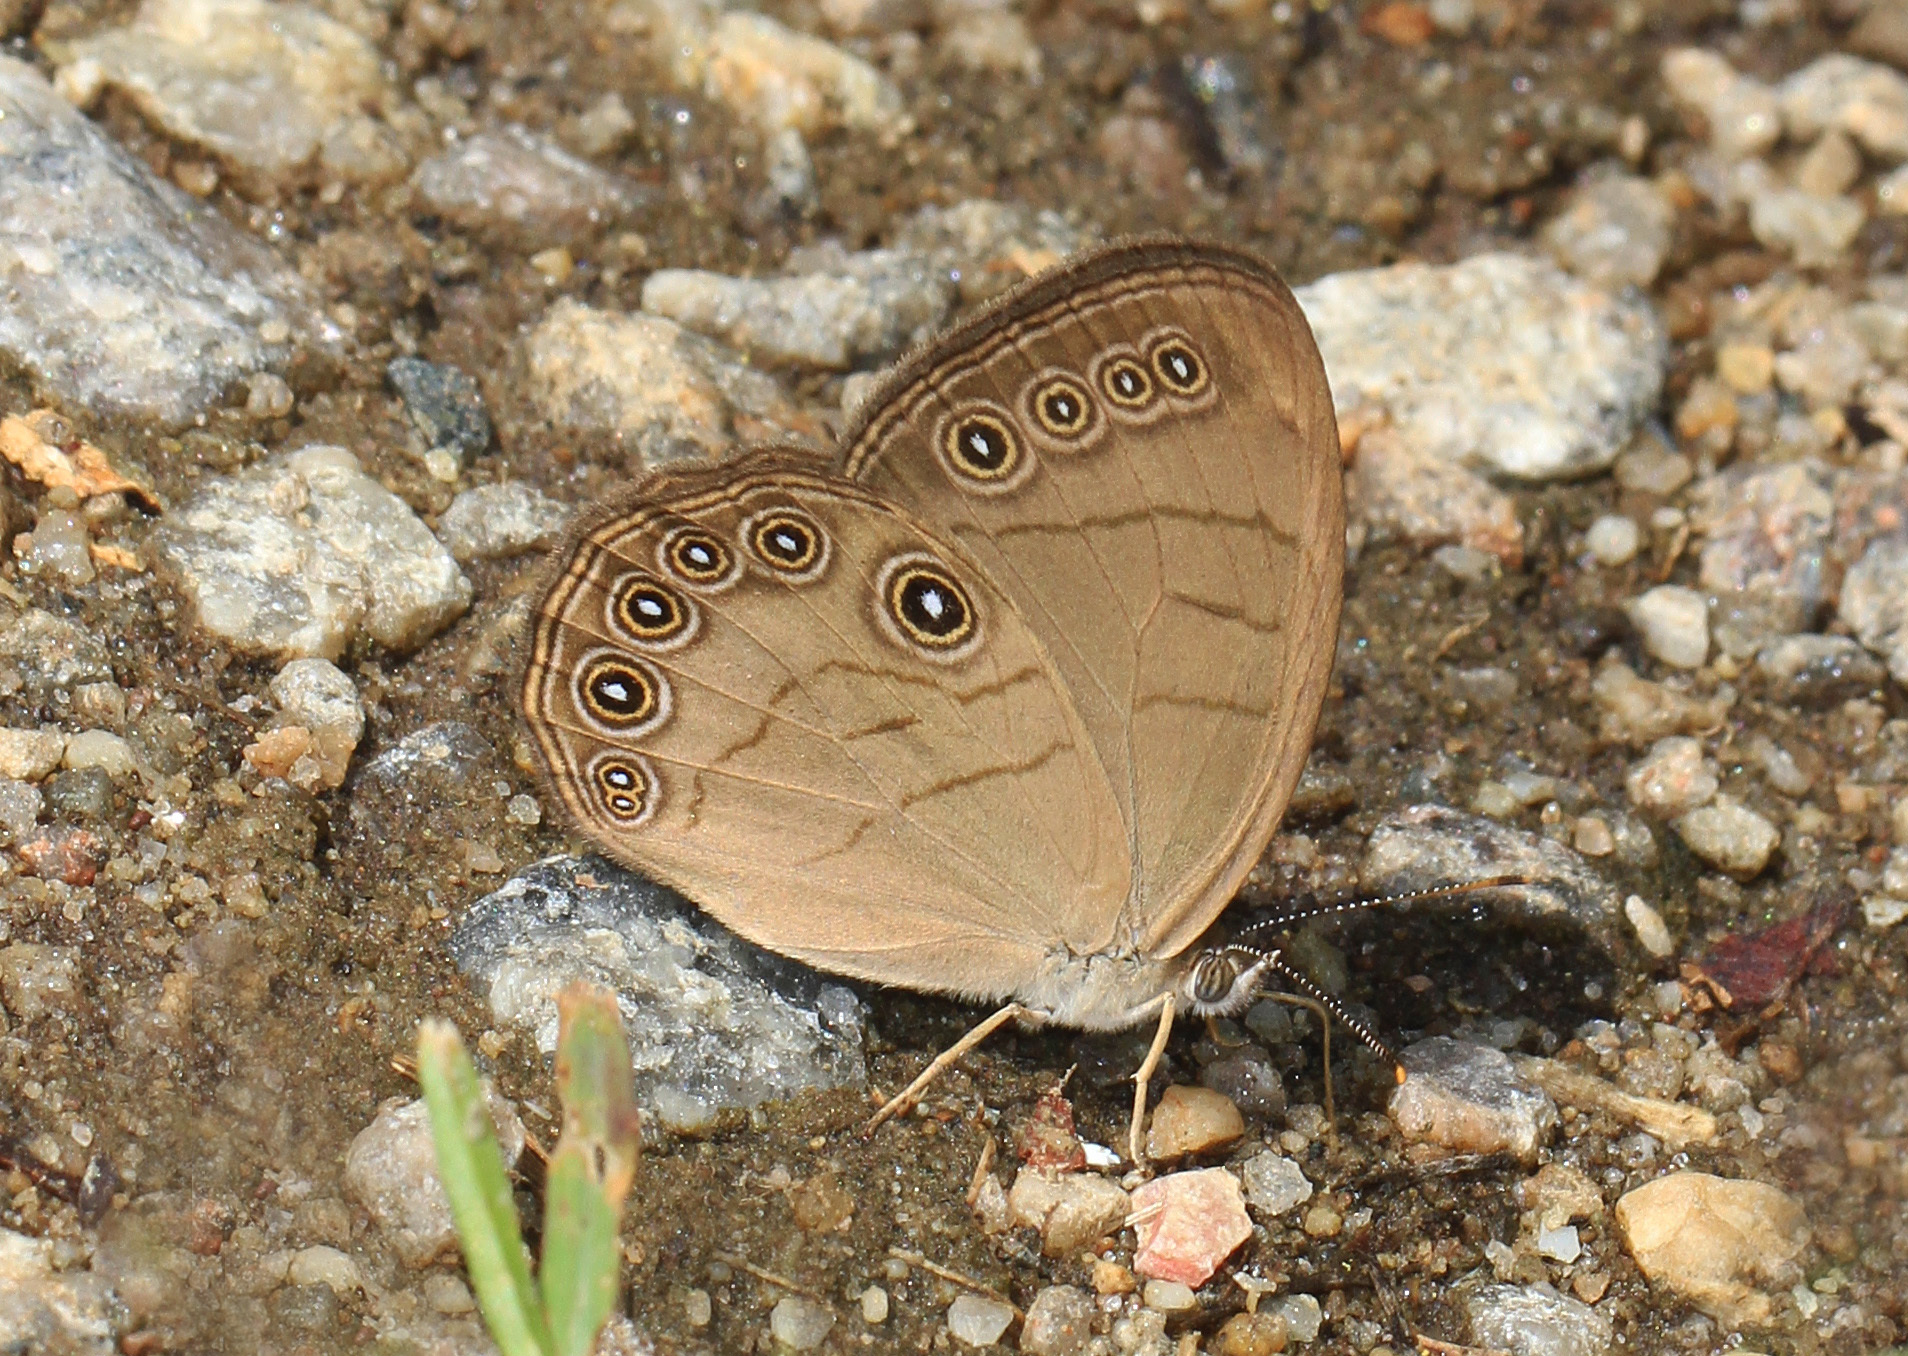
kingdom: Animalia
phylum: Arthropoda
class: Insecta
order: Lepidoptera
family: Nymphalidae
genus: Lethe
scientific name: Lethe eurydice
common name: Eyed brown
